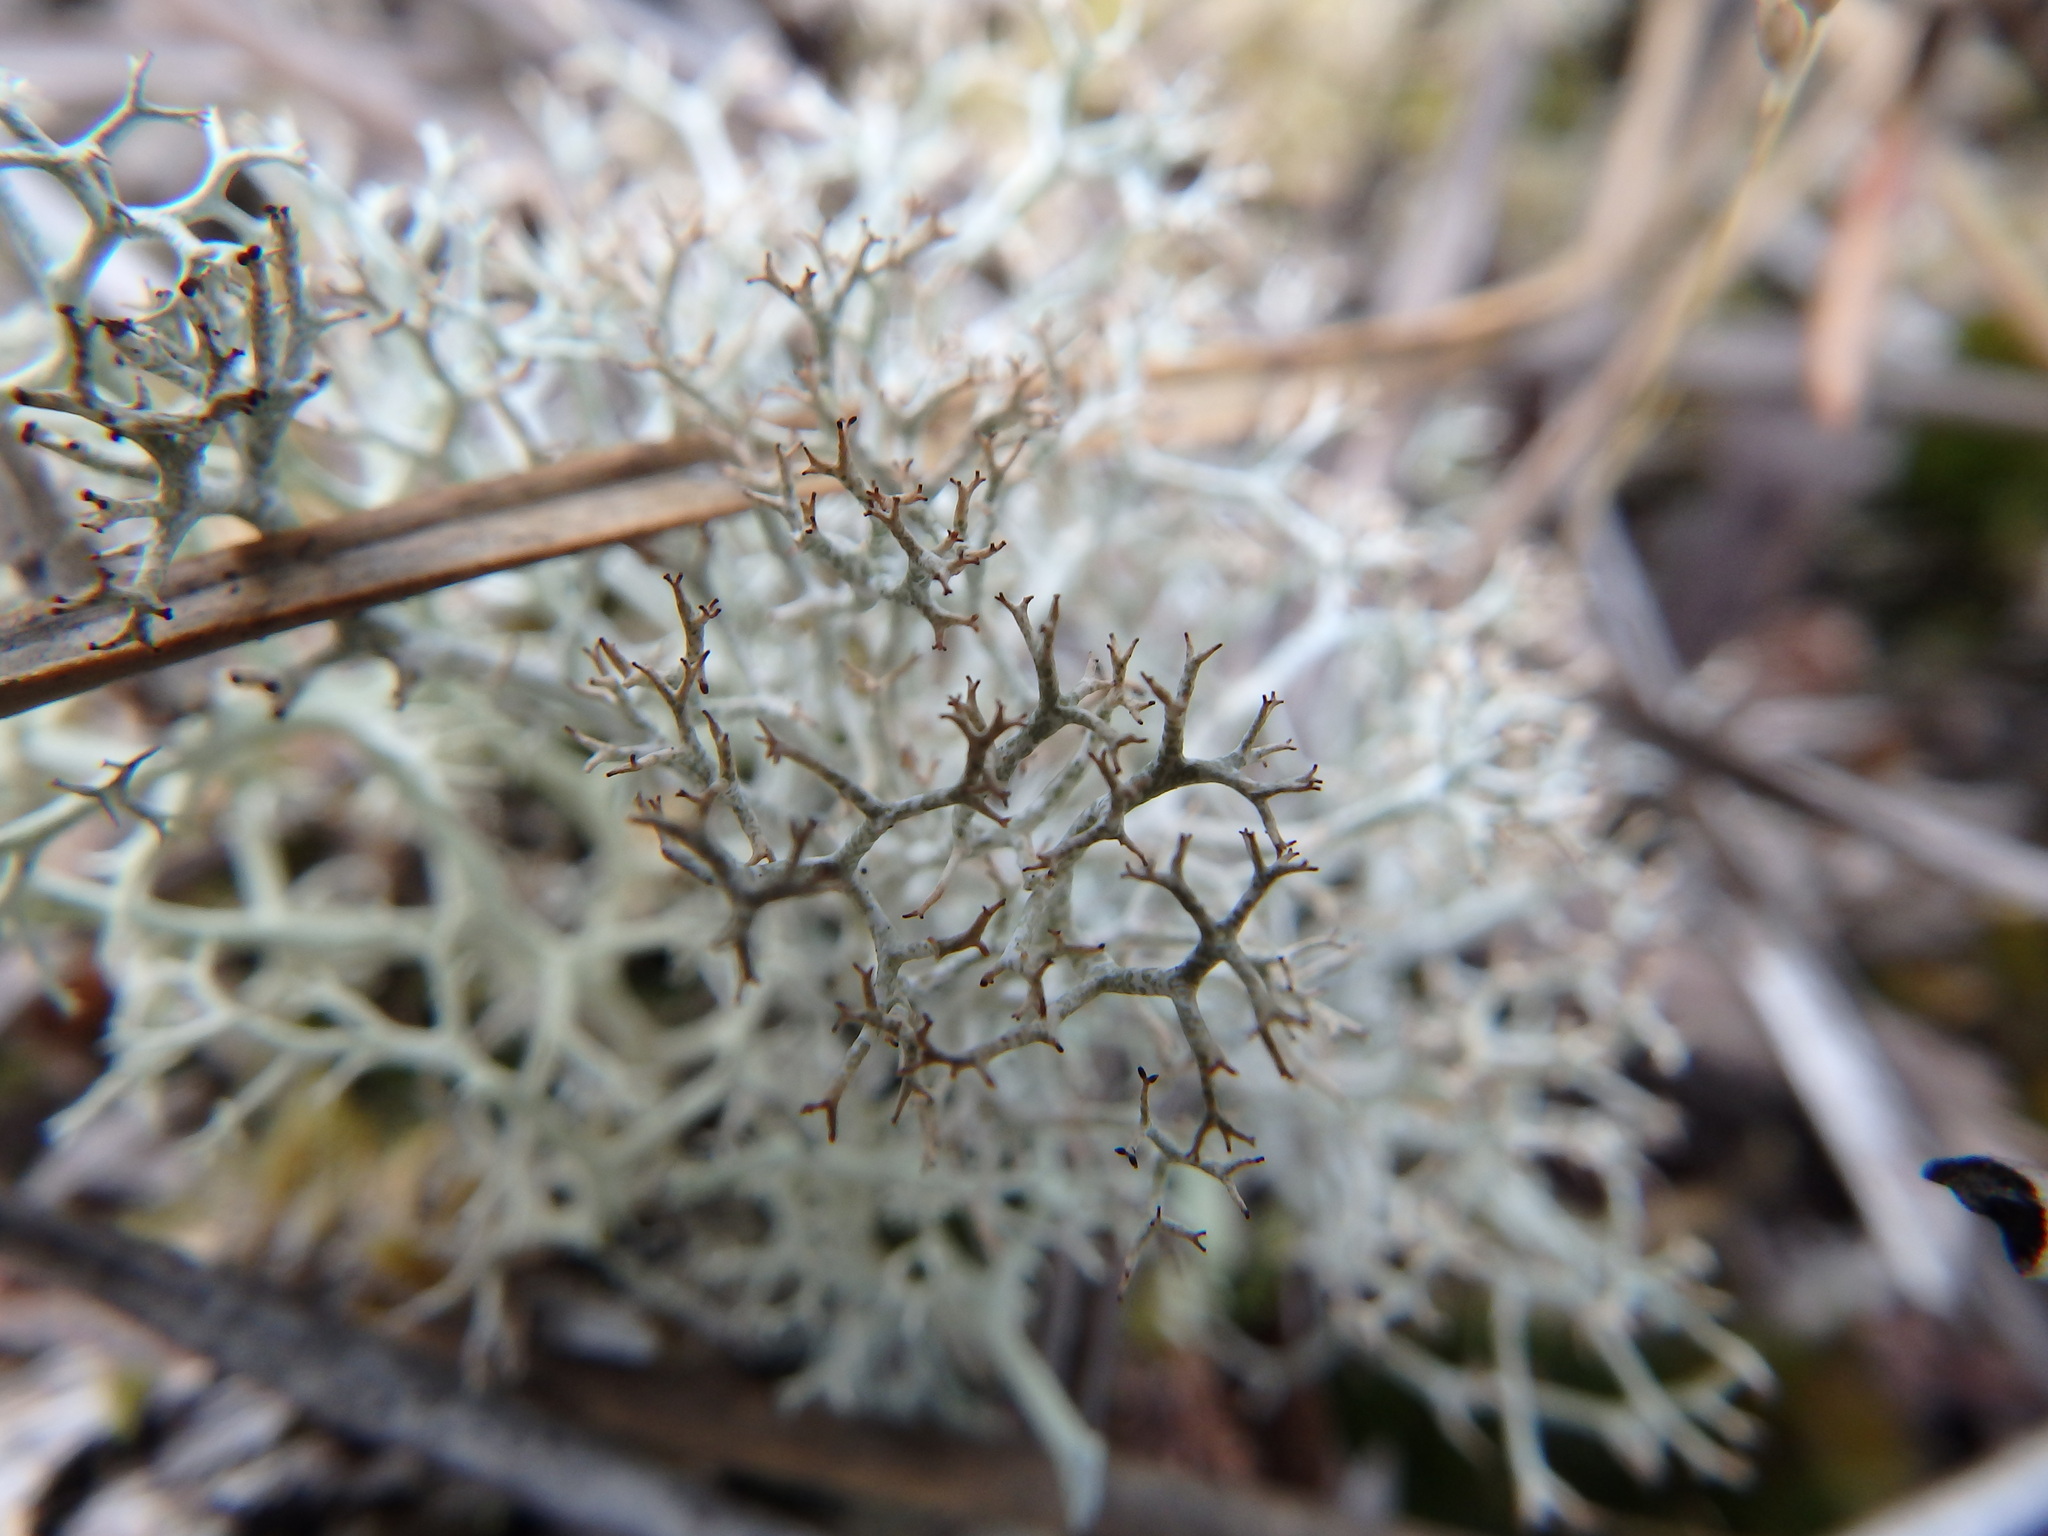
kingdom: Fungi
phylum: Ascomycota
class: Lecanoromycetes
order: Lecanorales
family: Cladoniaceae
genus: Cladonia
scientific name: Cladonia rangiformis
